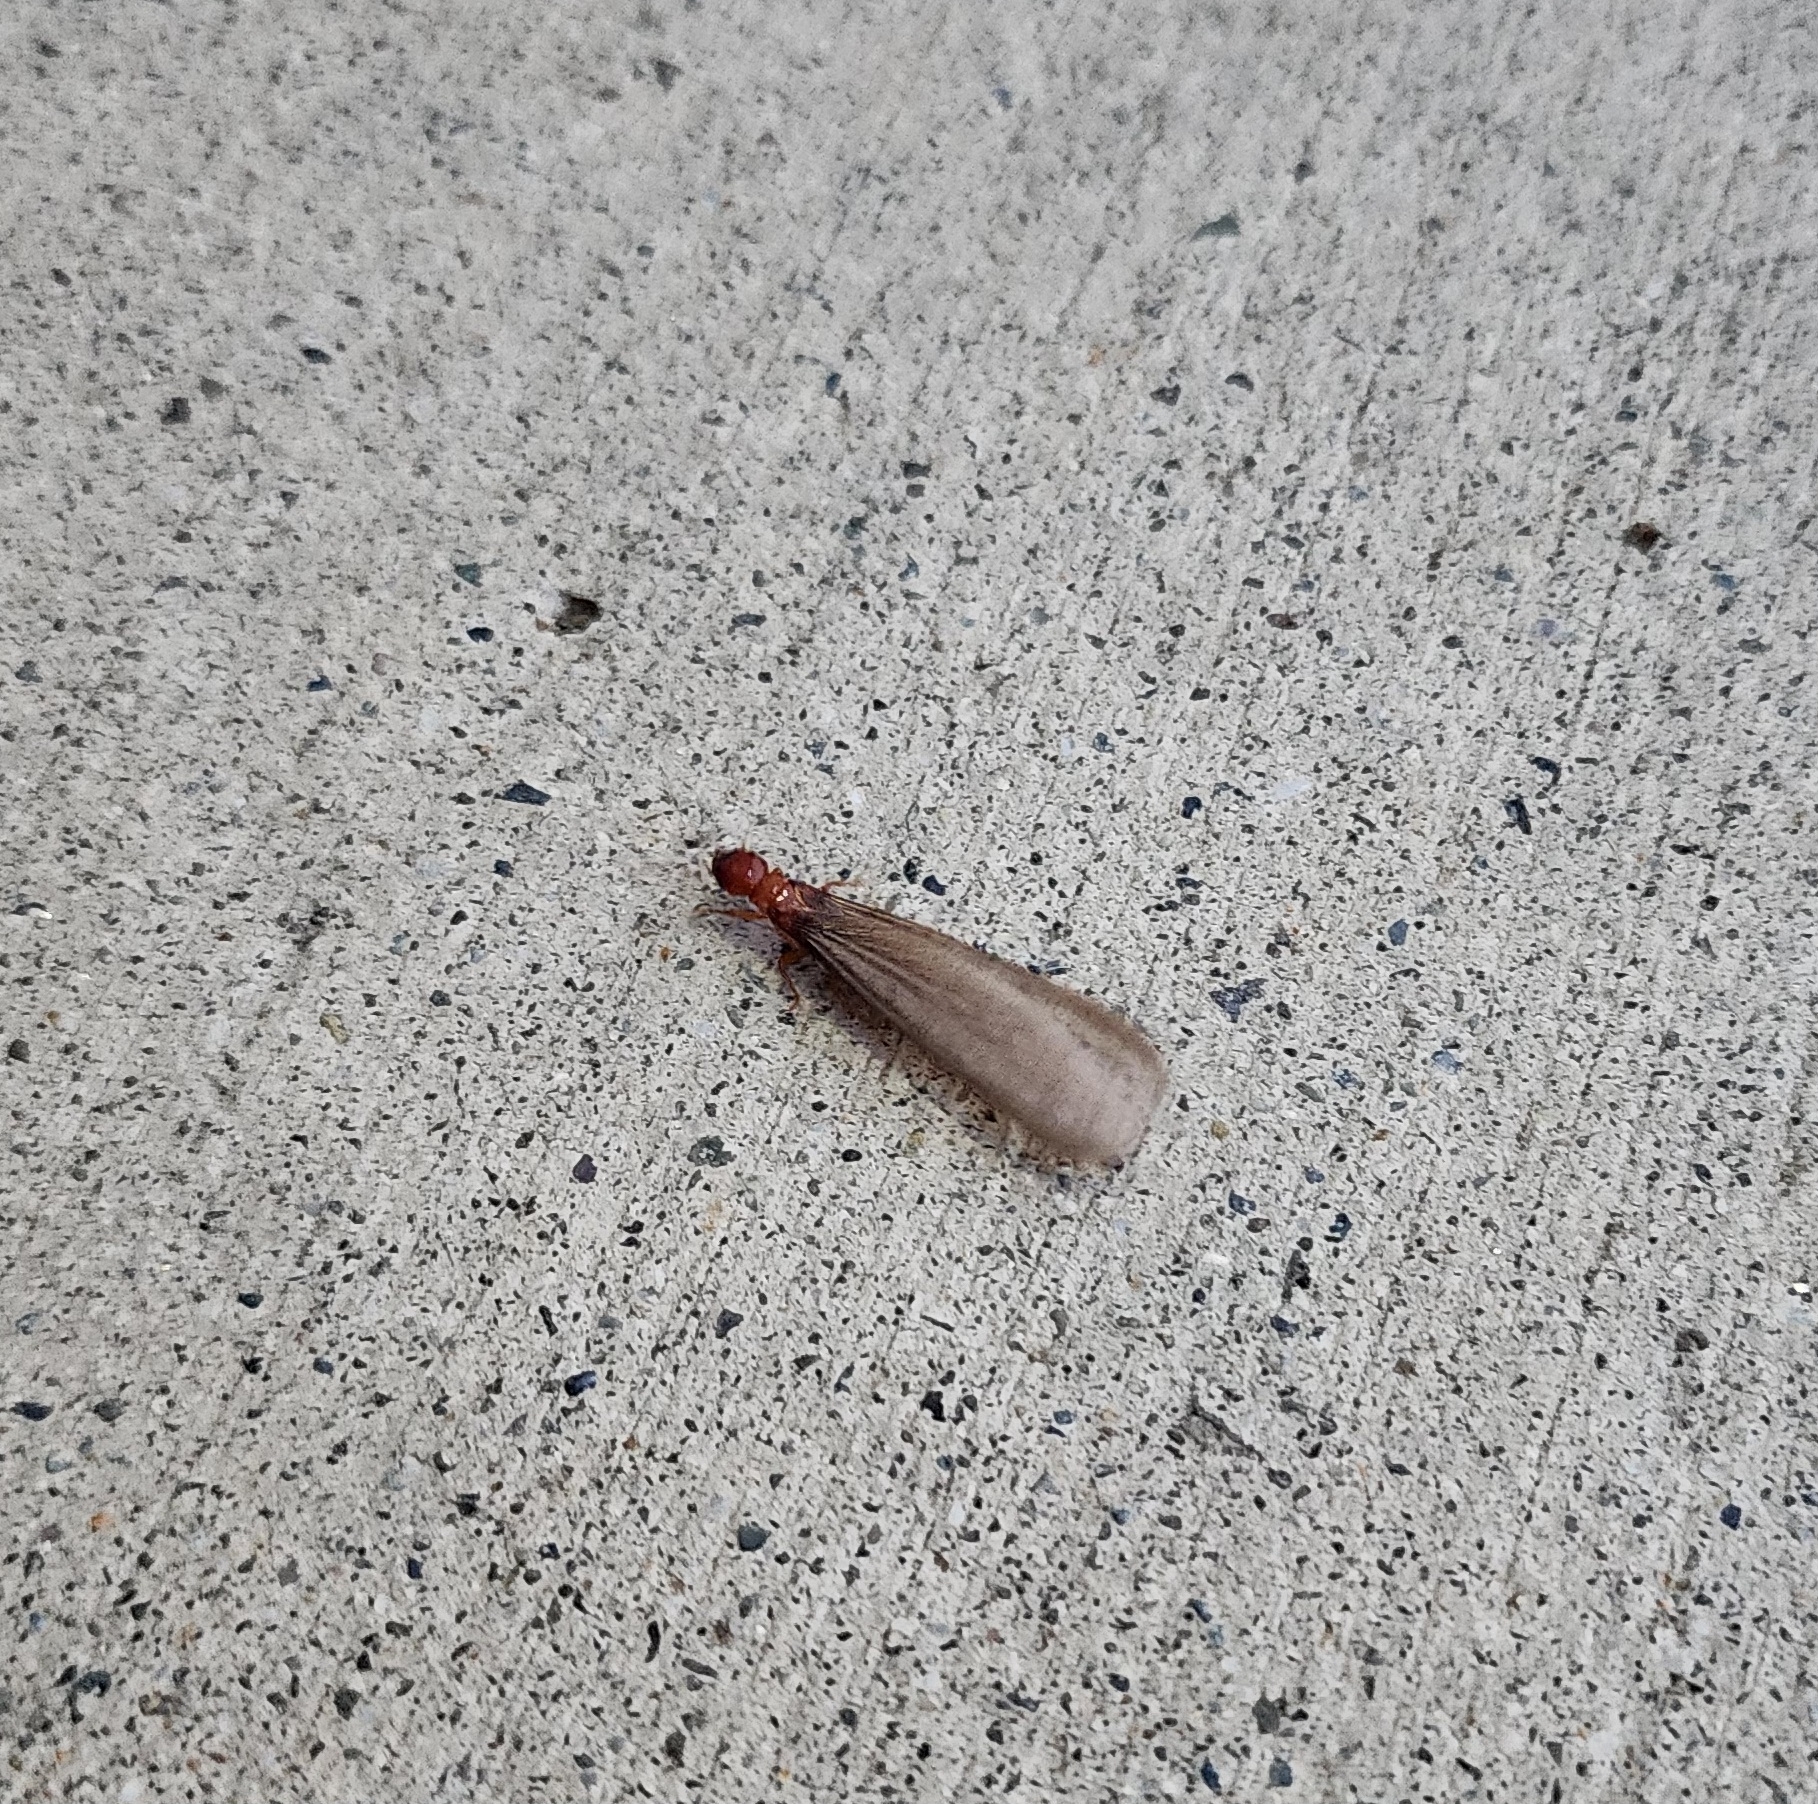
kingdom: Animalia
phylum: Arthropoda
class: Insecta
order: Blattodea
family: Archotermopsidae
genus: Zootermopsis
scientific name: Zootermopsis angusticollis
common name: Rottenwood termite
